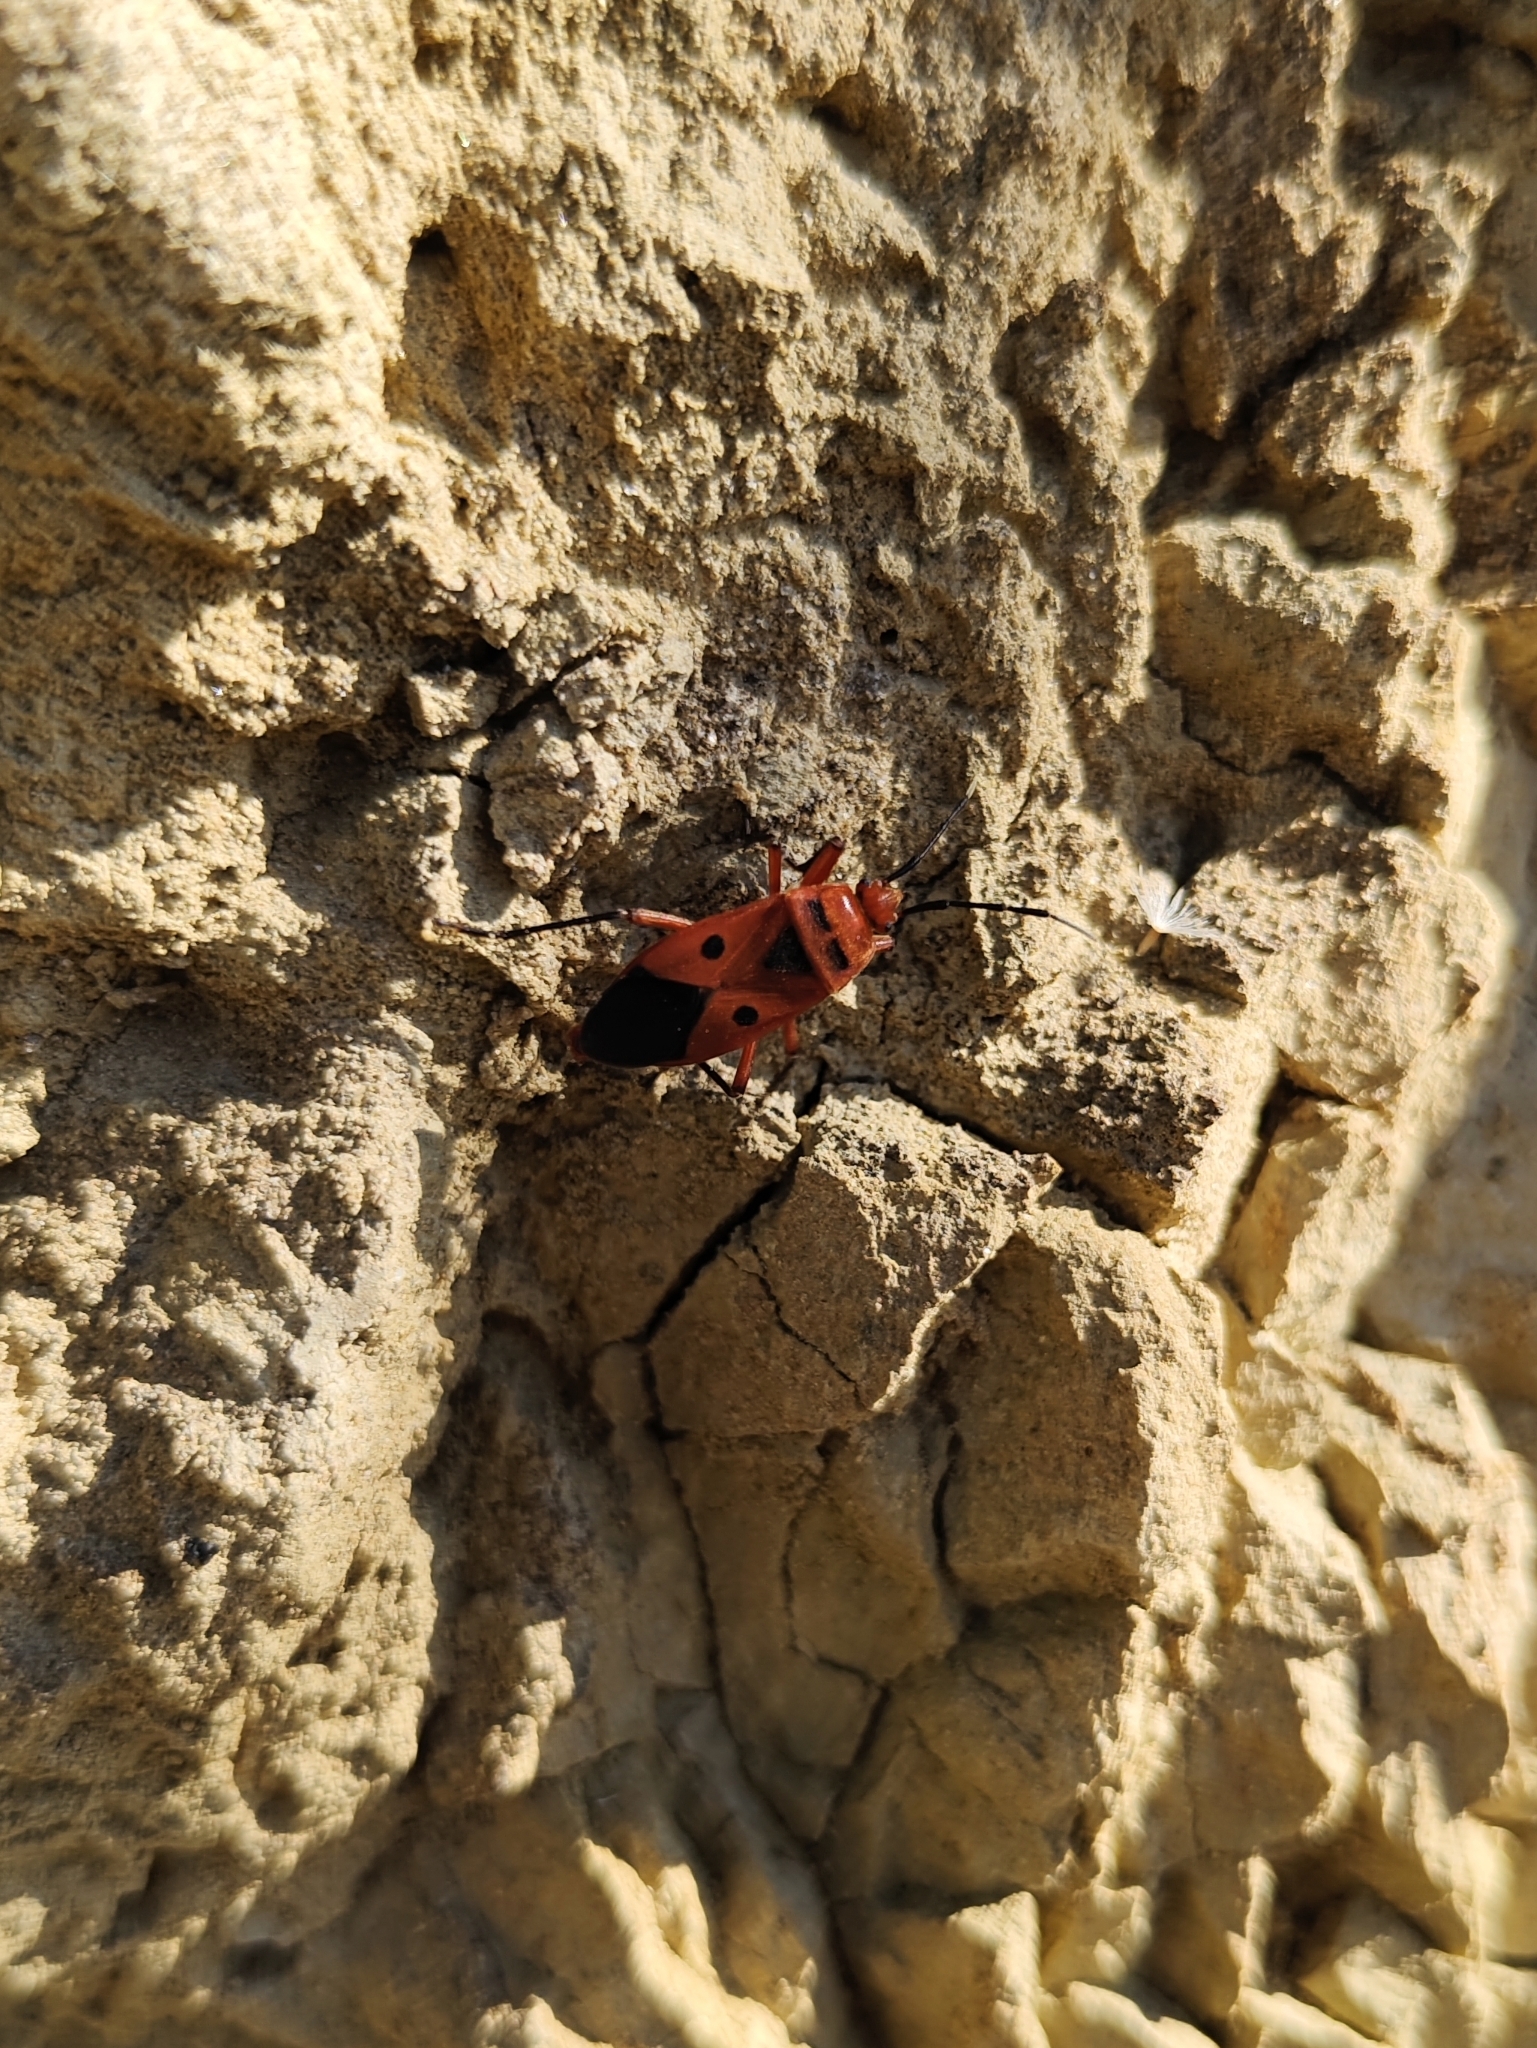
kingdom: Animalia
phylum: Arthropoda
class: Insecta
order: Hemiptera
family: Largidae
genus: Physopelta
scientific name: Physopelta slanbuschii
